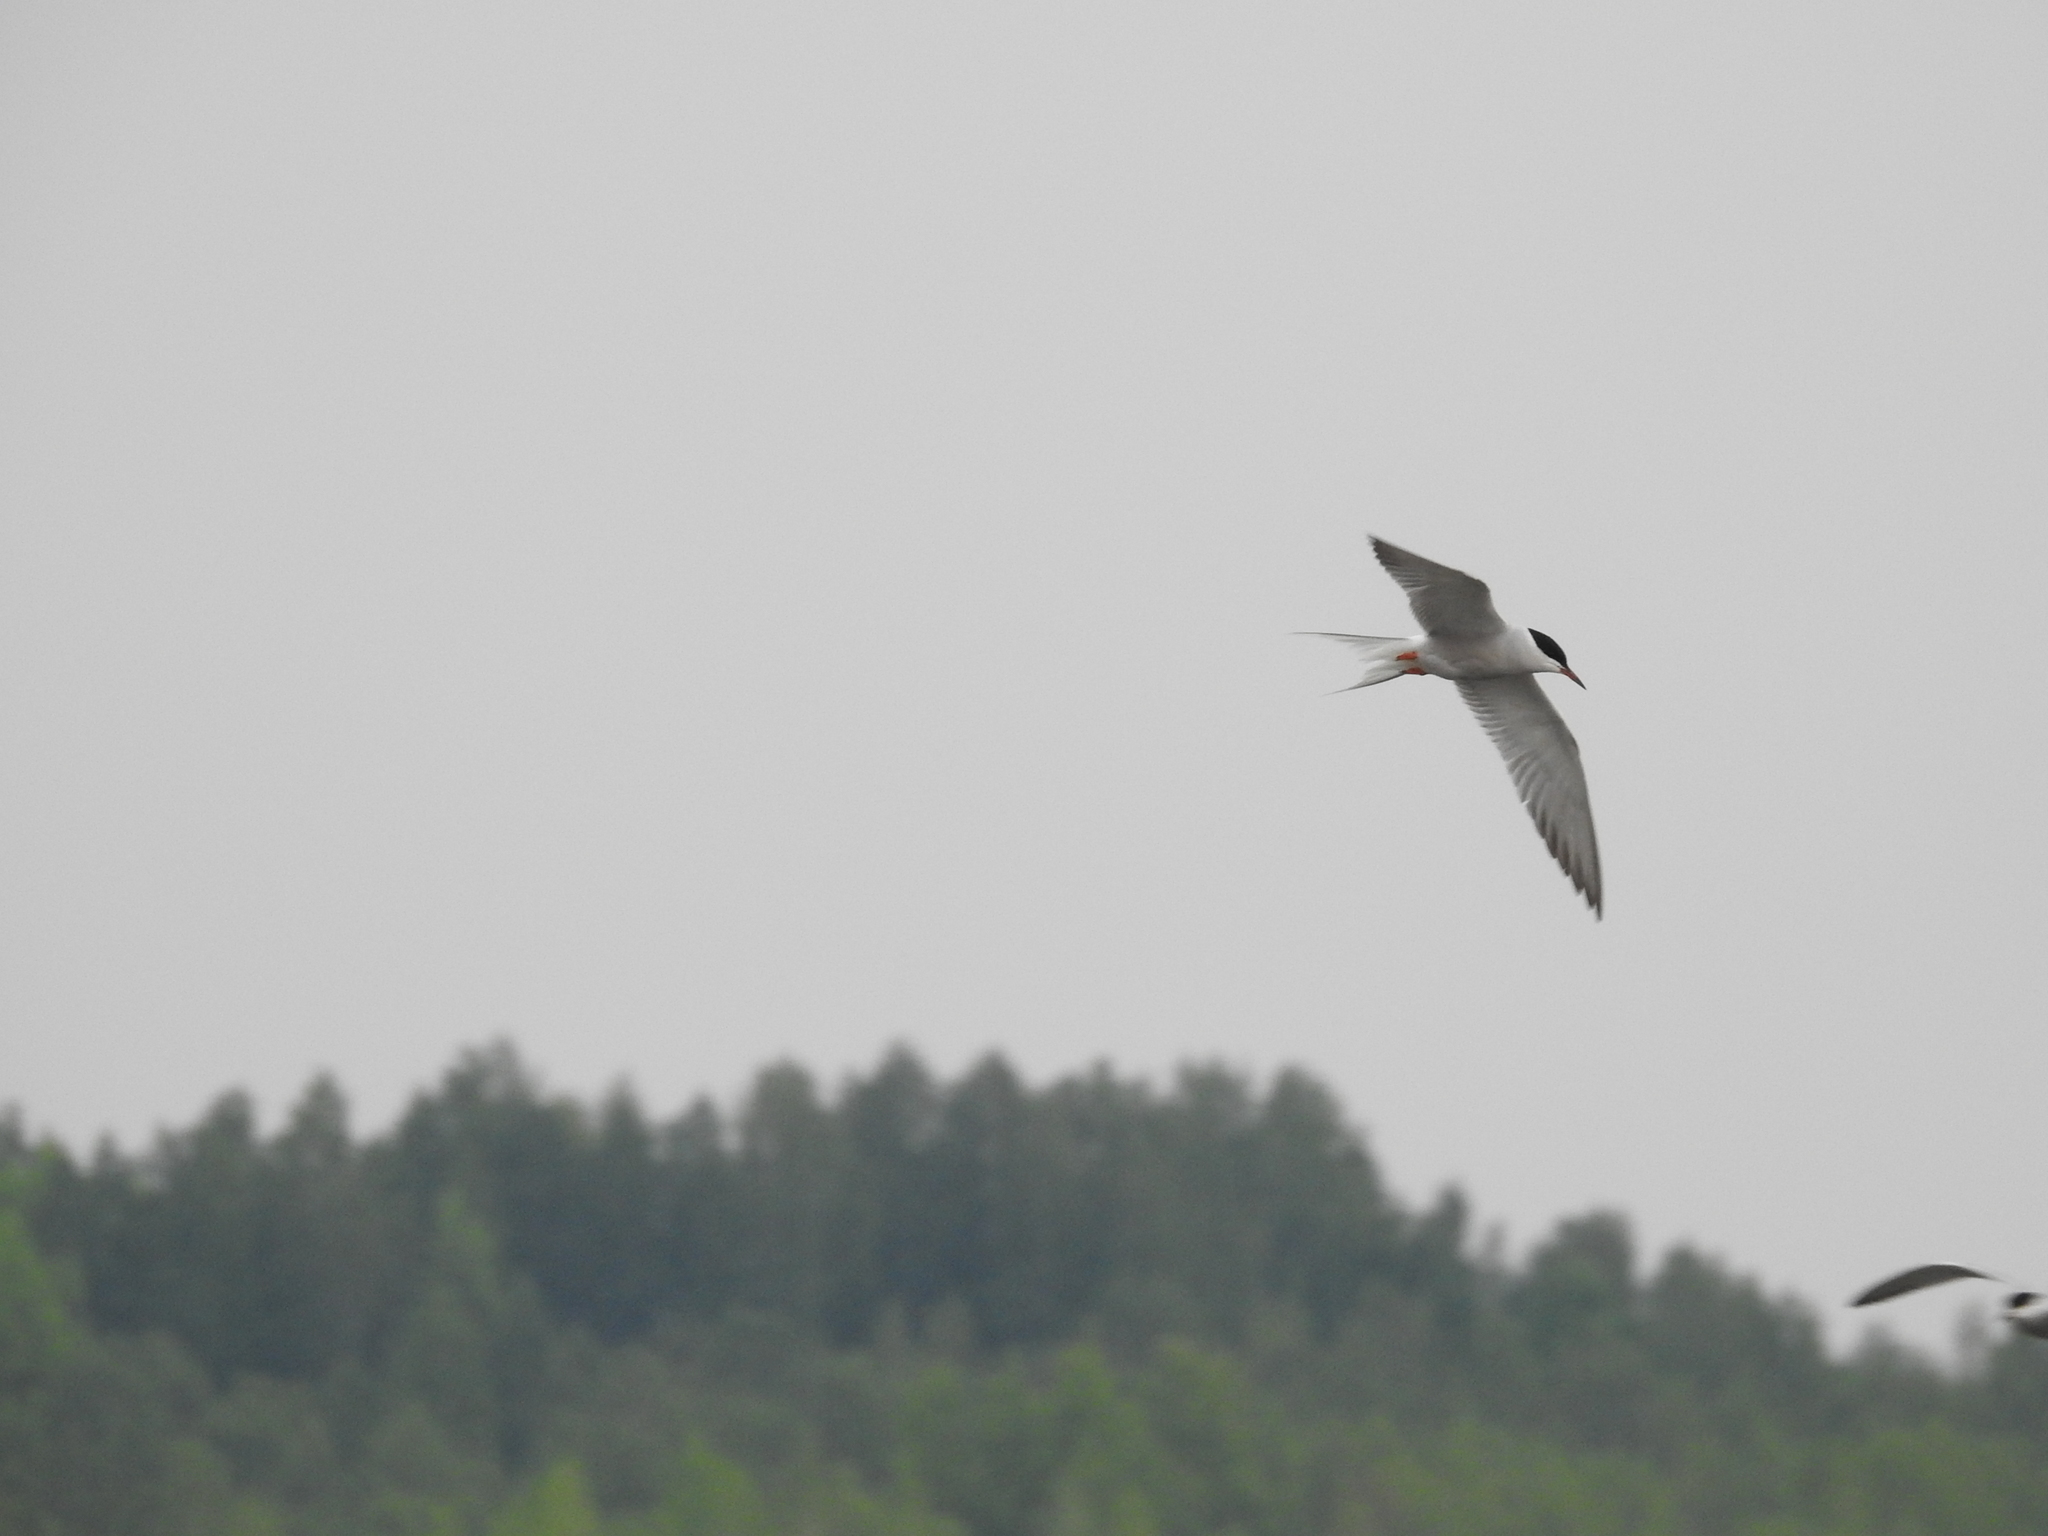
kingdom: Animalia
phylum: Chordata
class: Aves
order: Charadriiformes
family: Laridae
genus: Sterna
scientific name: Sterna hirundo
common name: Common tern
